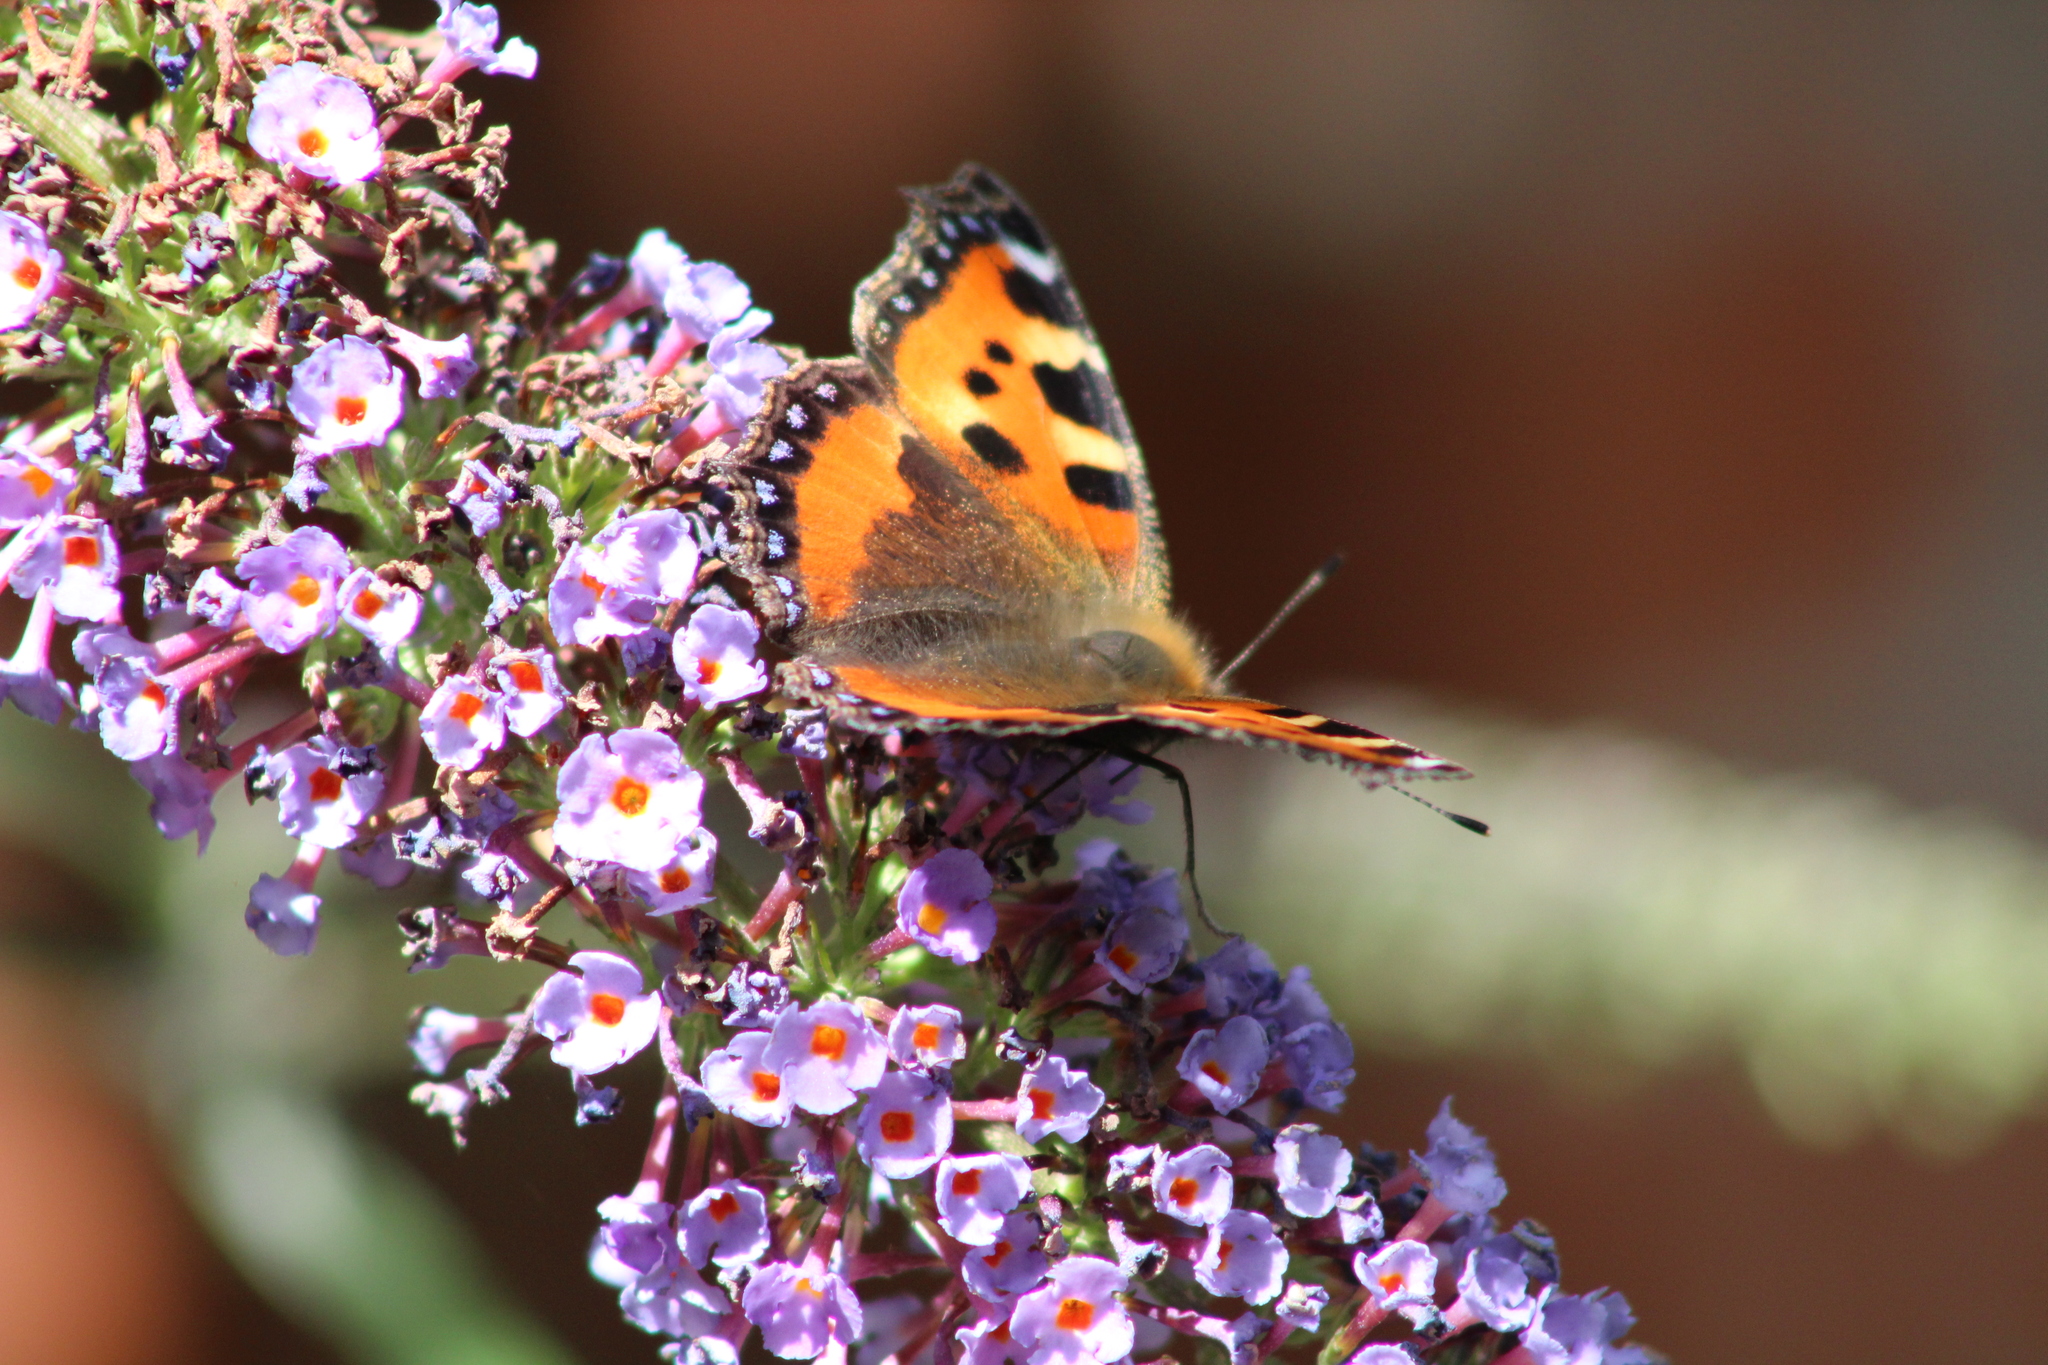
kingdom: Animalia
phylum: Arthropoda
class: Insecta
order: Lepidoptera
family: Nymphalidae
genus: Aglais
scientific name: Aglais urticae
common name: Small tortoiseshell
